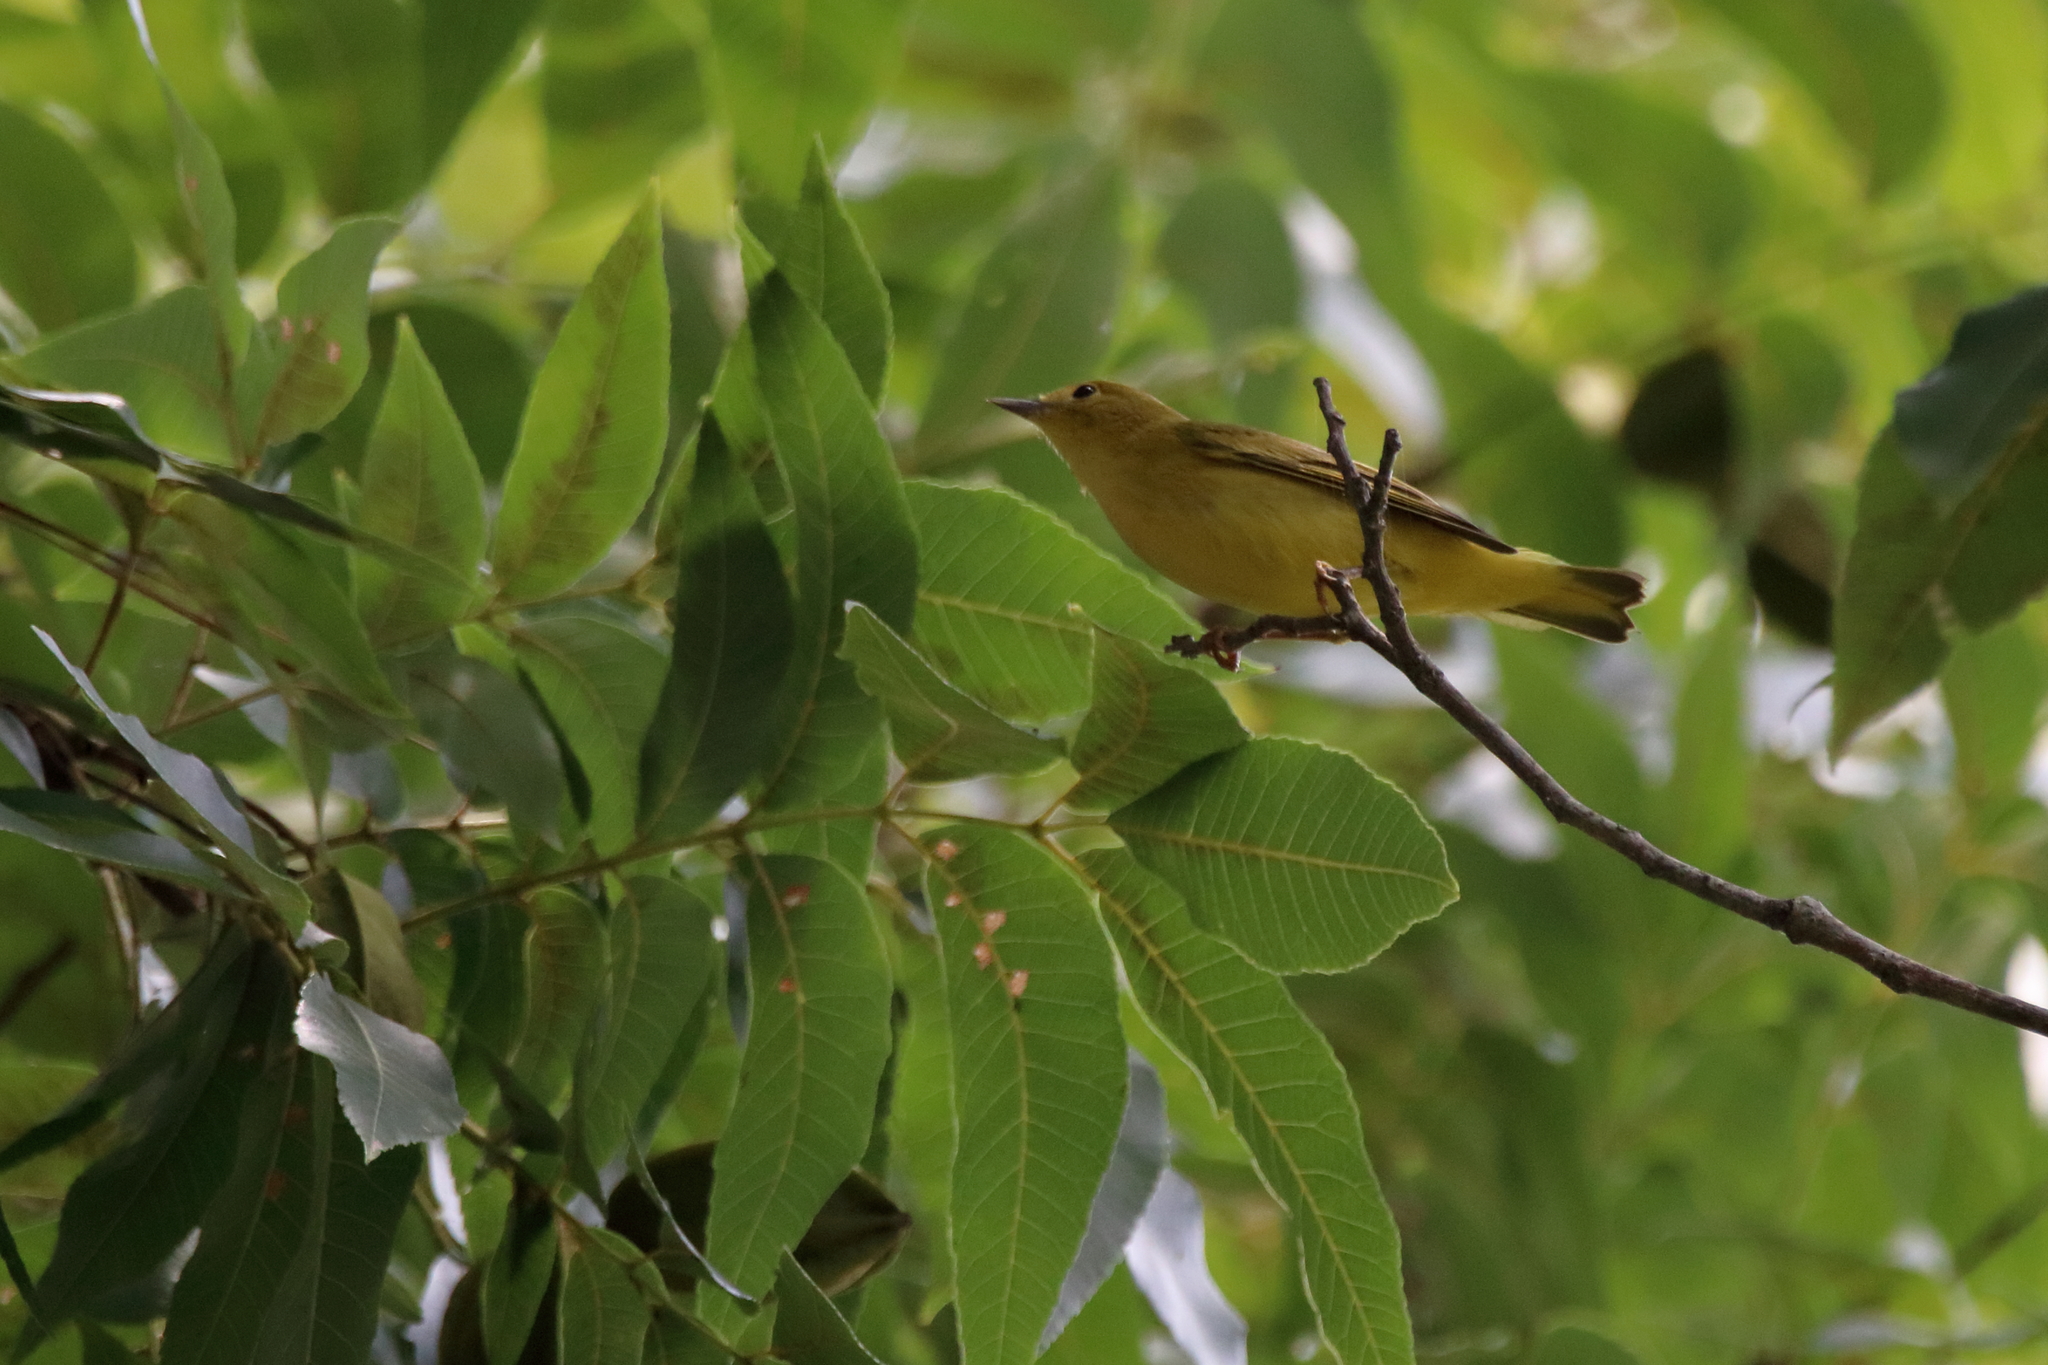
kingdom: Animalia
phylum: Chordata
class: Aves
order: Passeriformes
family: Parulidae
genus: Setophaga
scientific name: Setophaga petechia
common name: Yellow warbler
